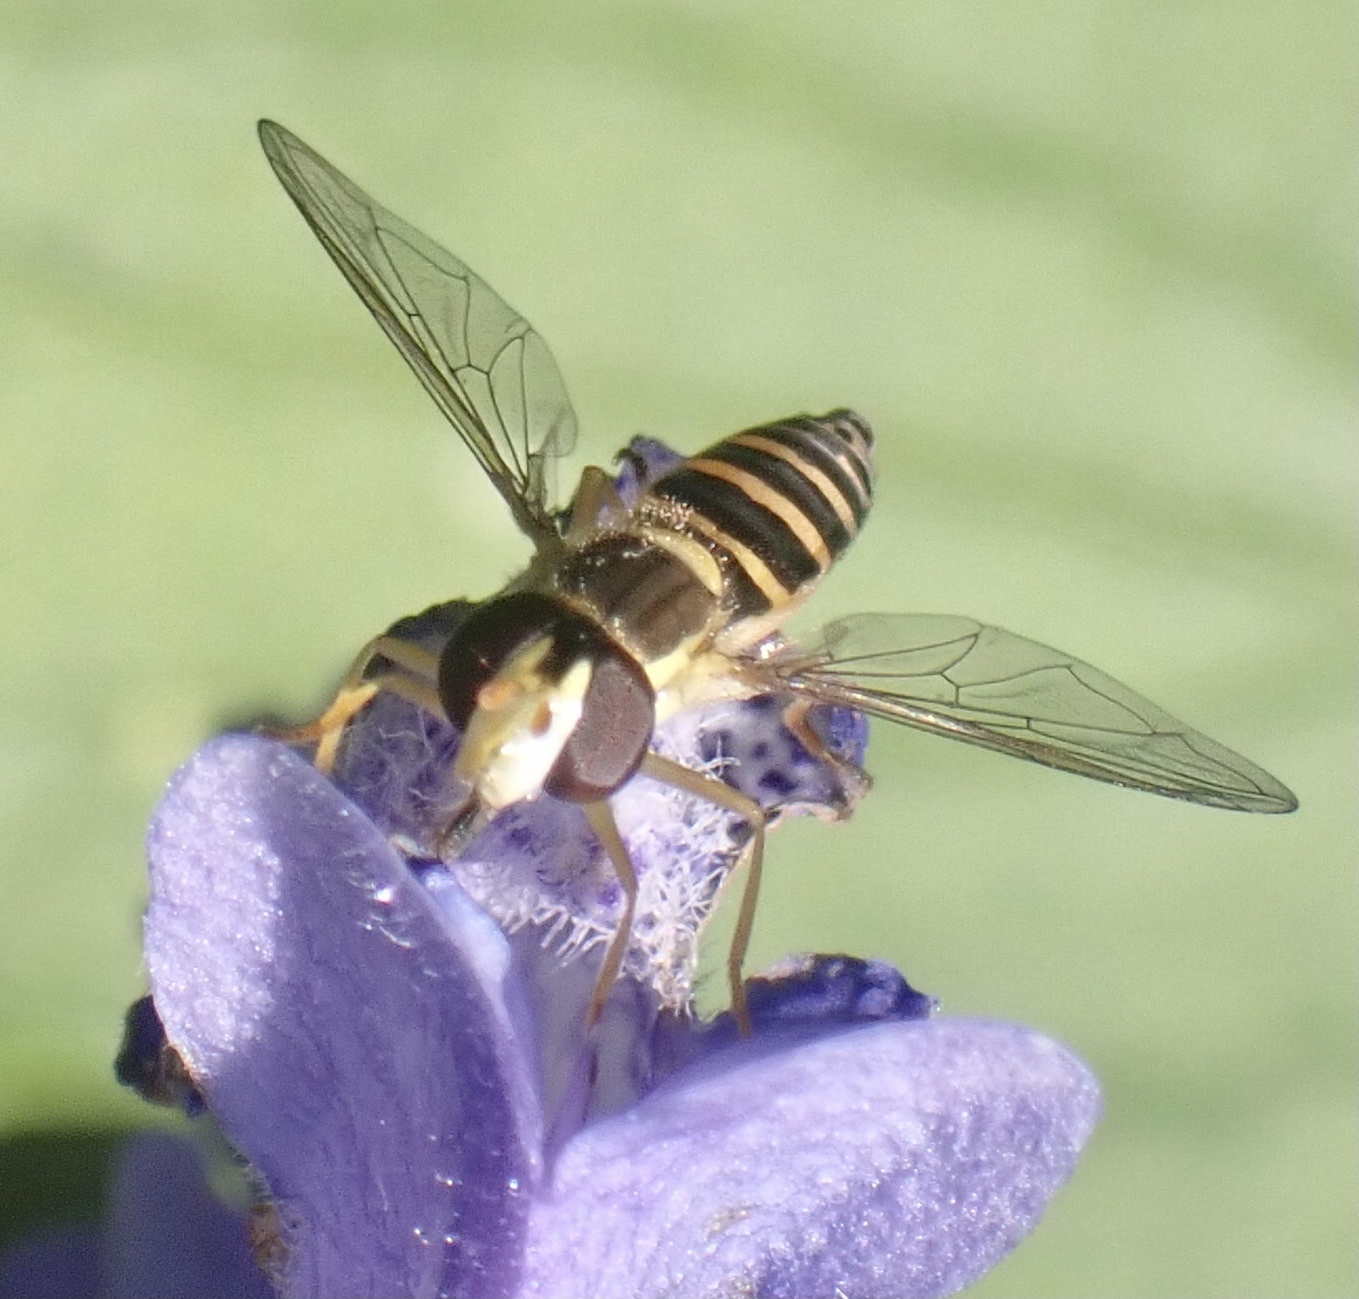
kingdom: Animalia
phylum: Arthropoda
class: Insecta
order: Diptera
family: Syrphidae
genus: Sphaerophoria
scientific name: Sphaerophoria
